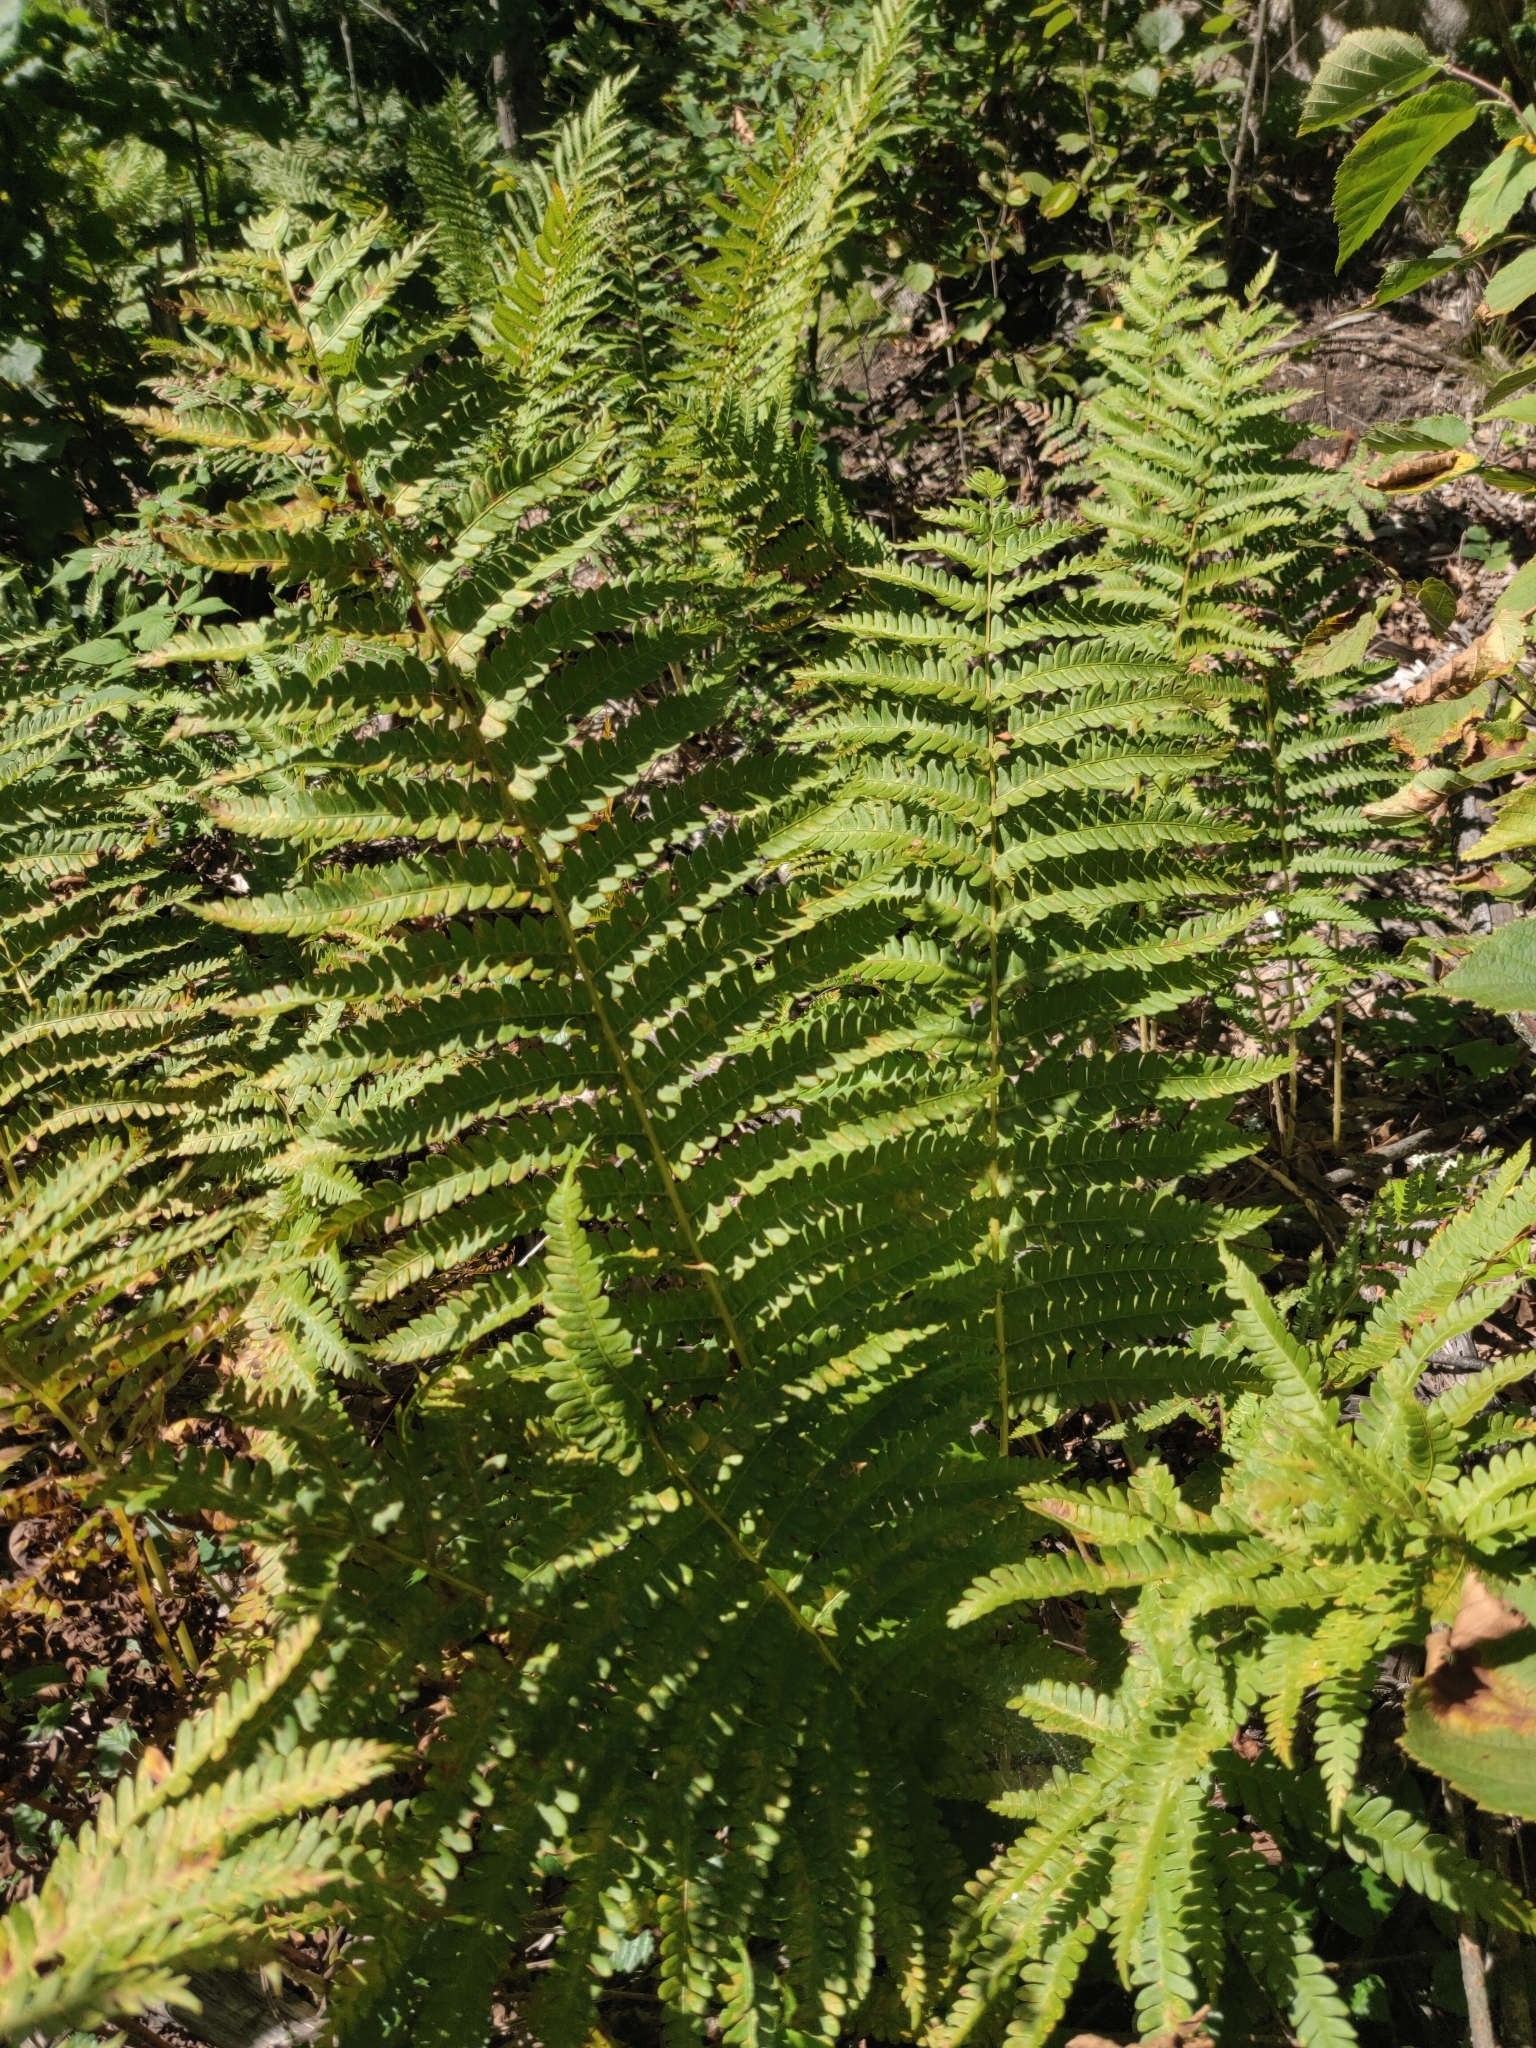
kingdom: Plantae
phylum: Tracheophyta
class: Polypodiopsida
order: Osmundales
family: Osmundaceae
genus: Osmundastrum
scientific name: Osmundastrum cinnamomeum
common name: Cinnamon fern
